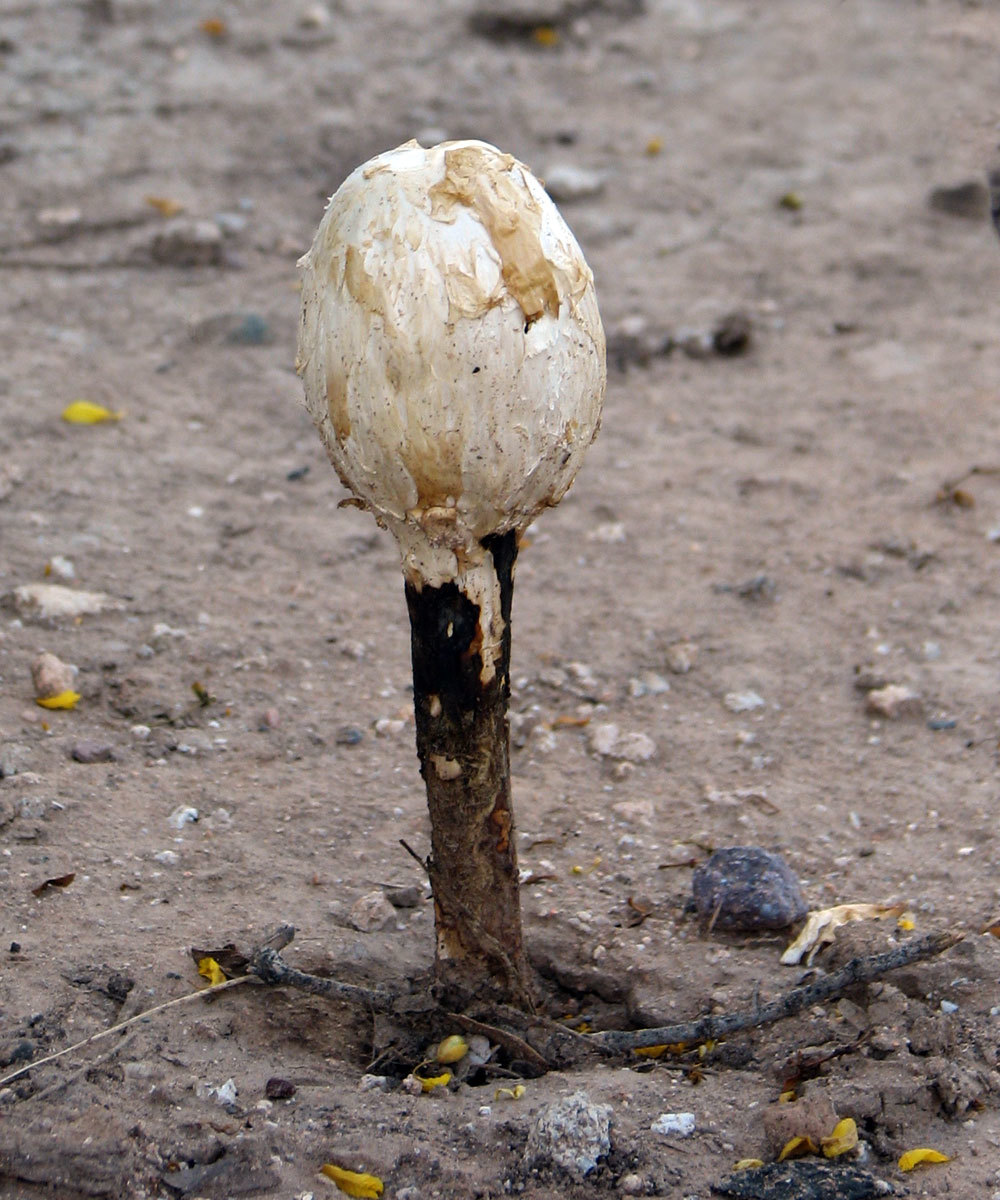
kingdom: Fungi
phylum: Basidiomycota
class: Agaricomycetes
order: Agaricales
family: Agaricaceae
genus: Podaxis
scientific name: Podaxis pistillaris
